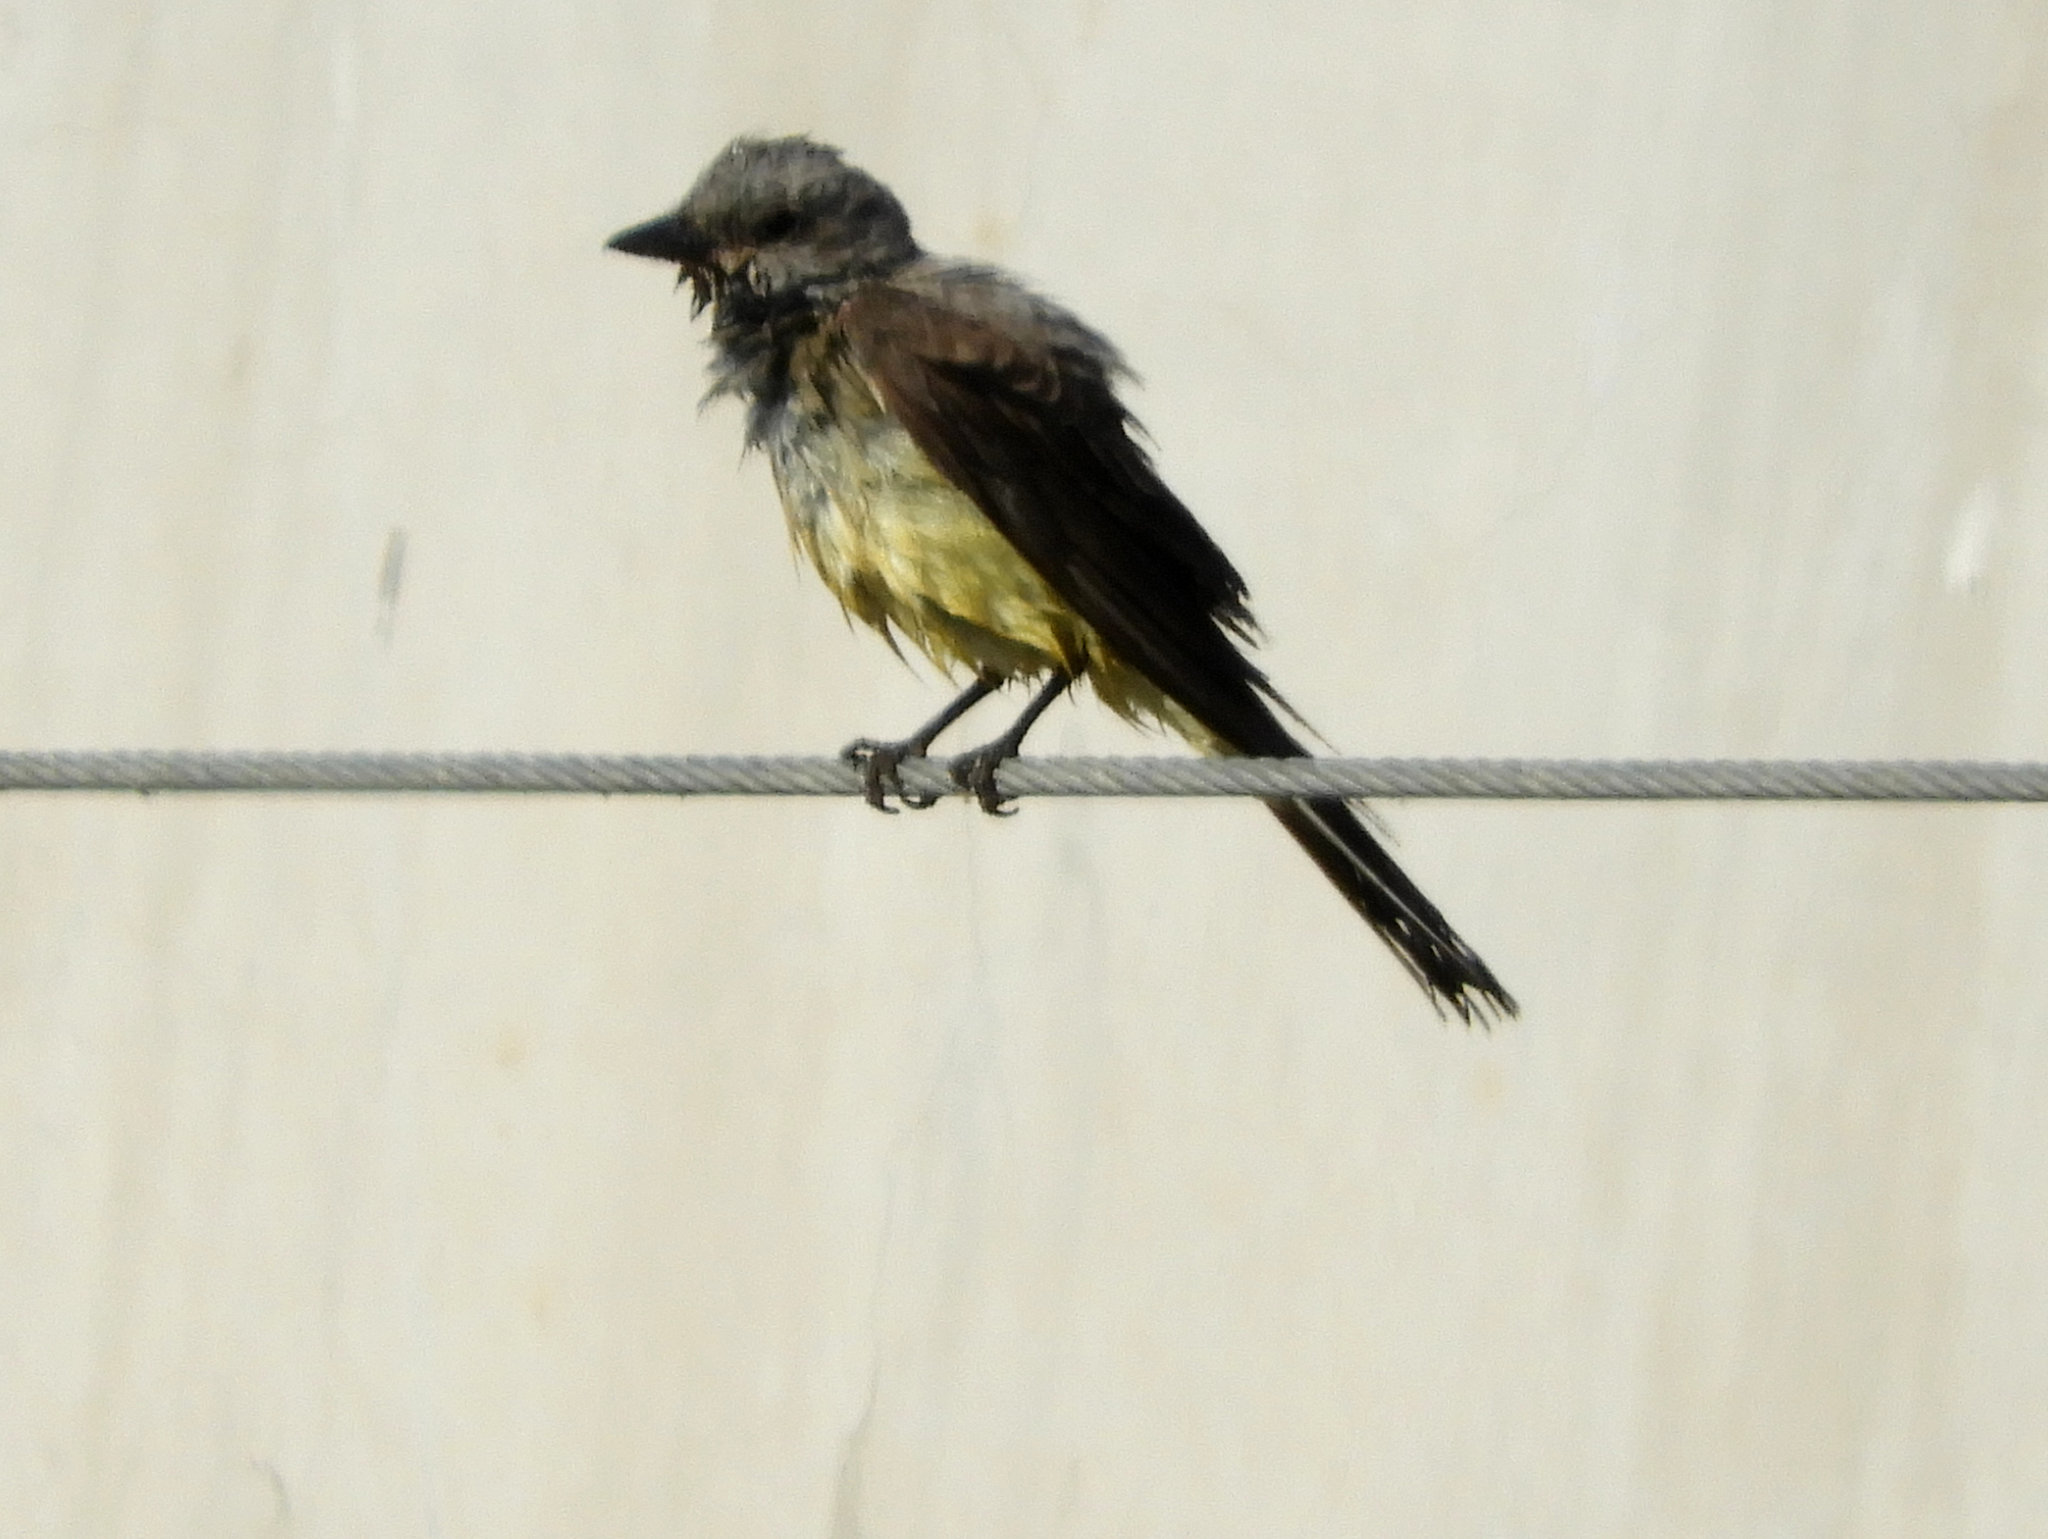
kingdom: Animalia
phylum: Chordata
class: Aves
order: Passeriformes
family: Tyrannidae
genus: Tyrannus
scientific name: Tyrannus verticalis
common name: Western kingbird
